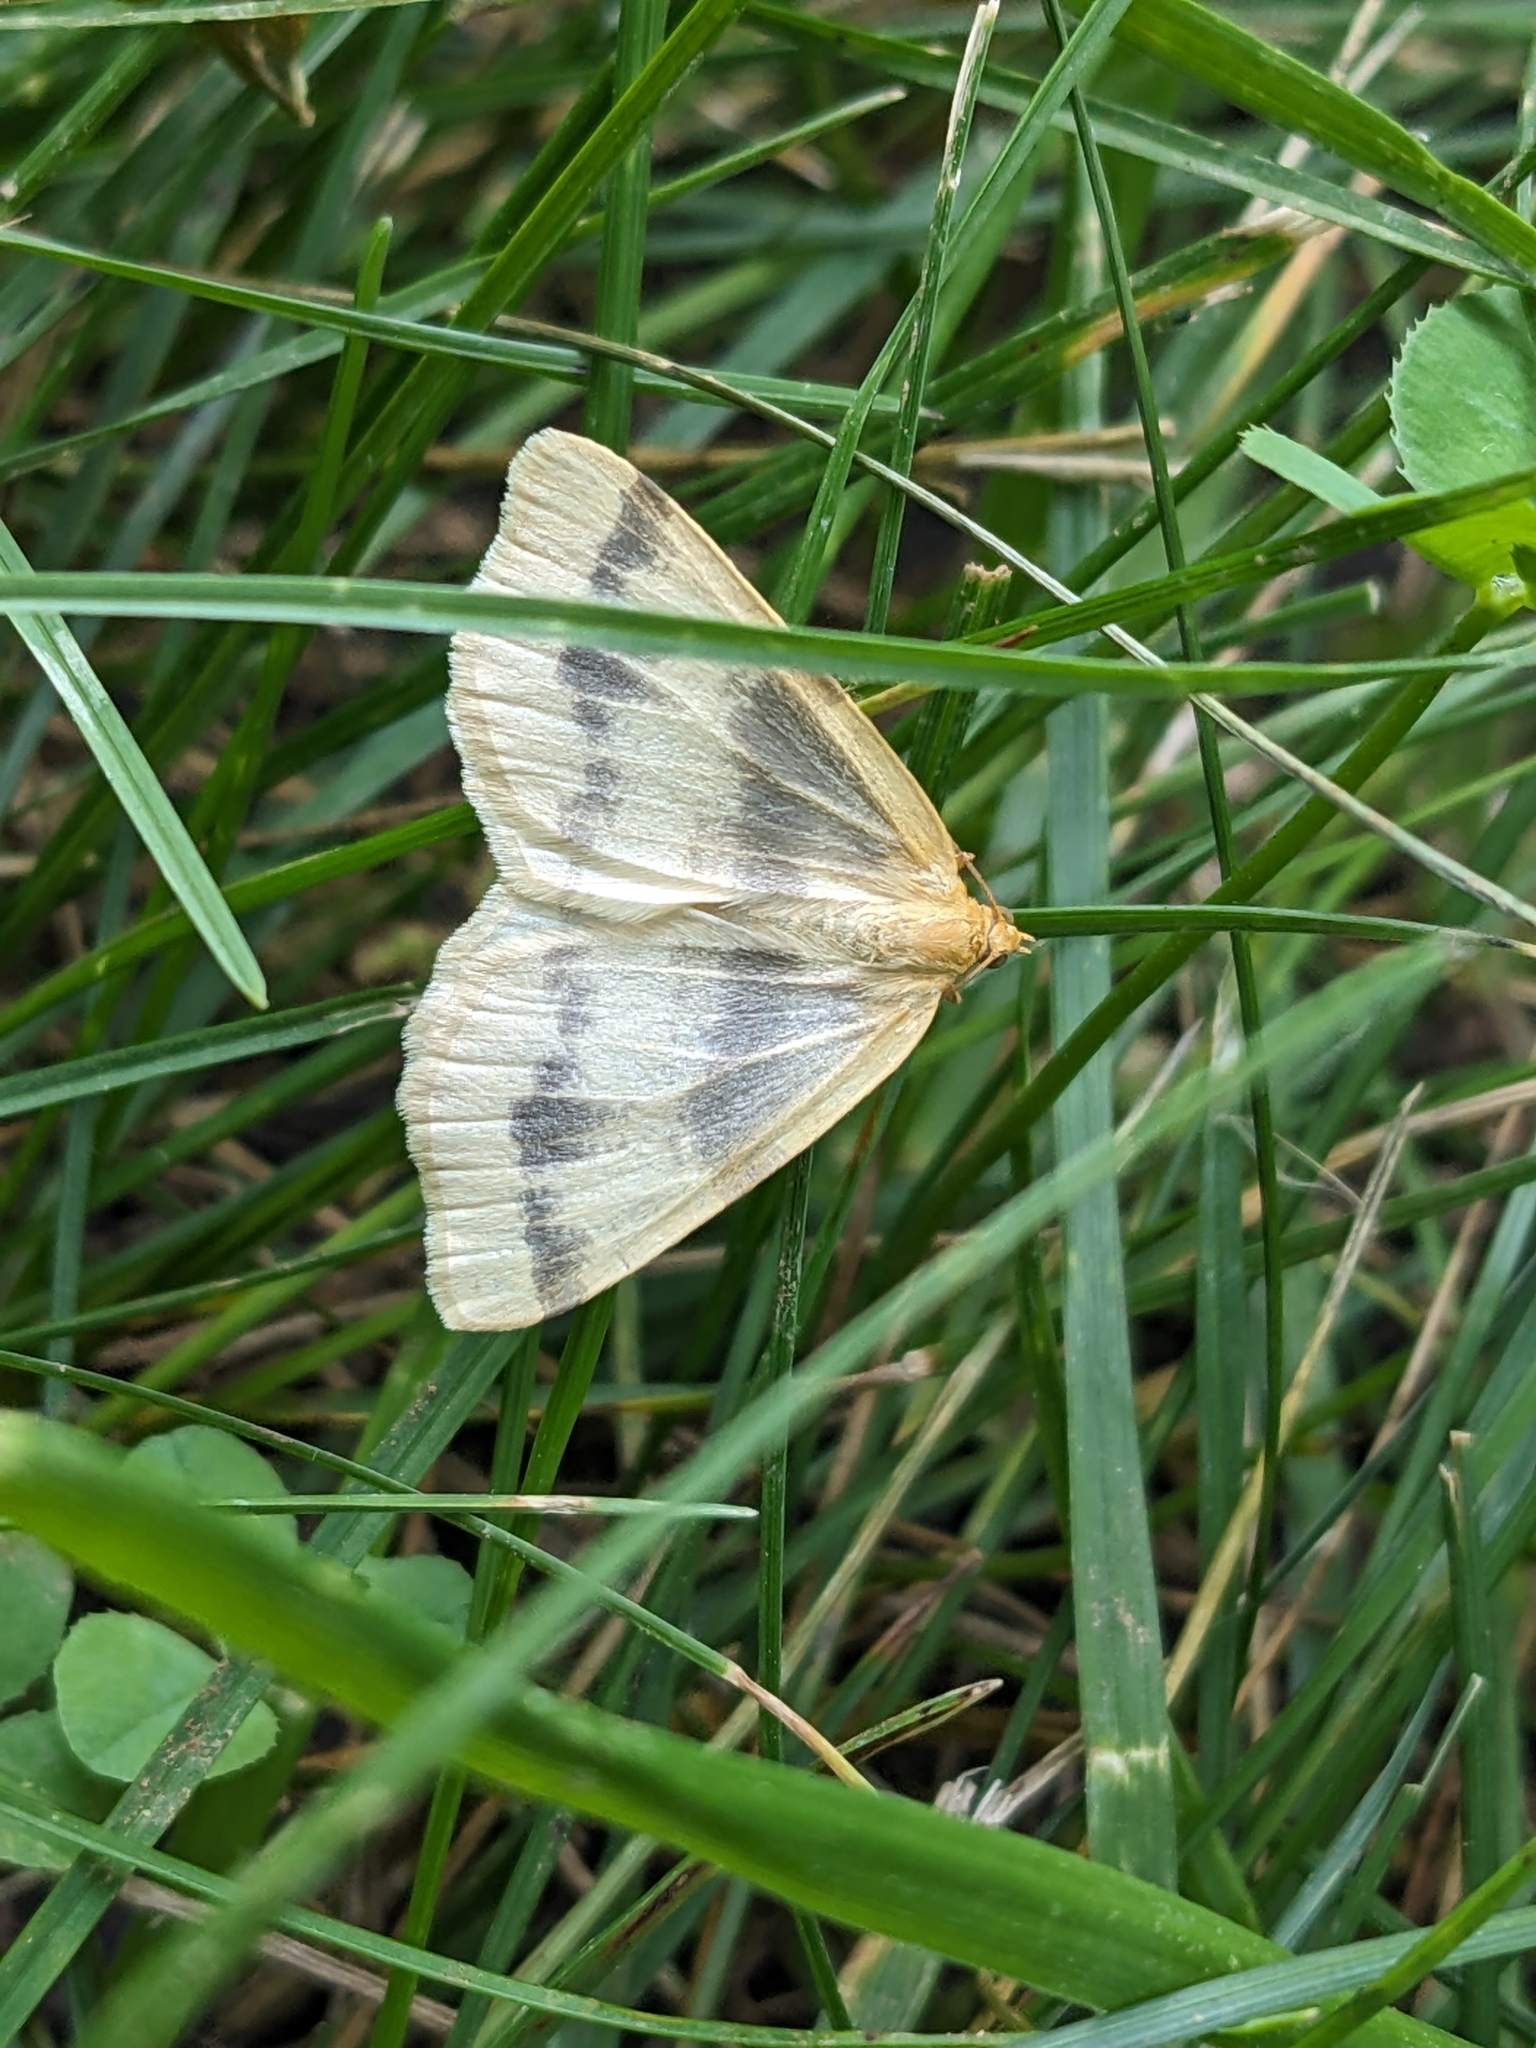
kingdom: Animalia
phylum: Arthropoda
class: Insecta
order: Lepidoptera
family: Geometridae
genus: Macaria
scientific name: Macaria ribearia
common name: Currant spanworm moth
